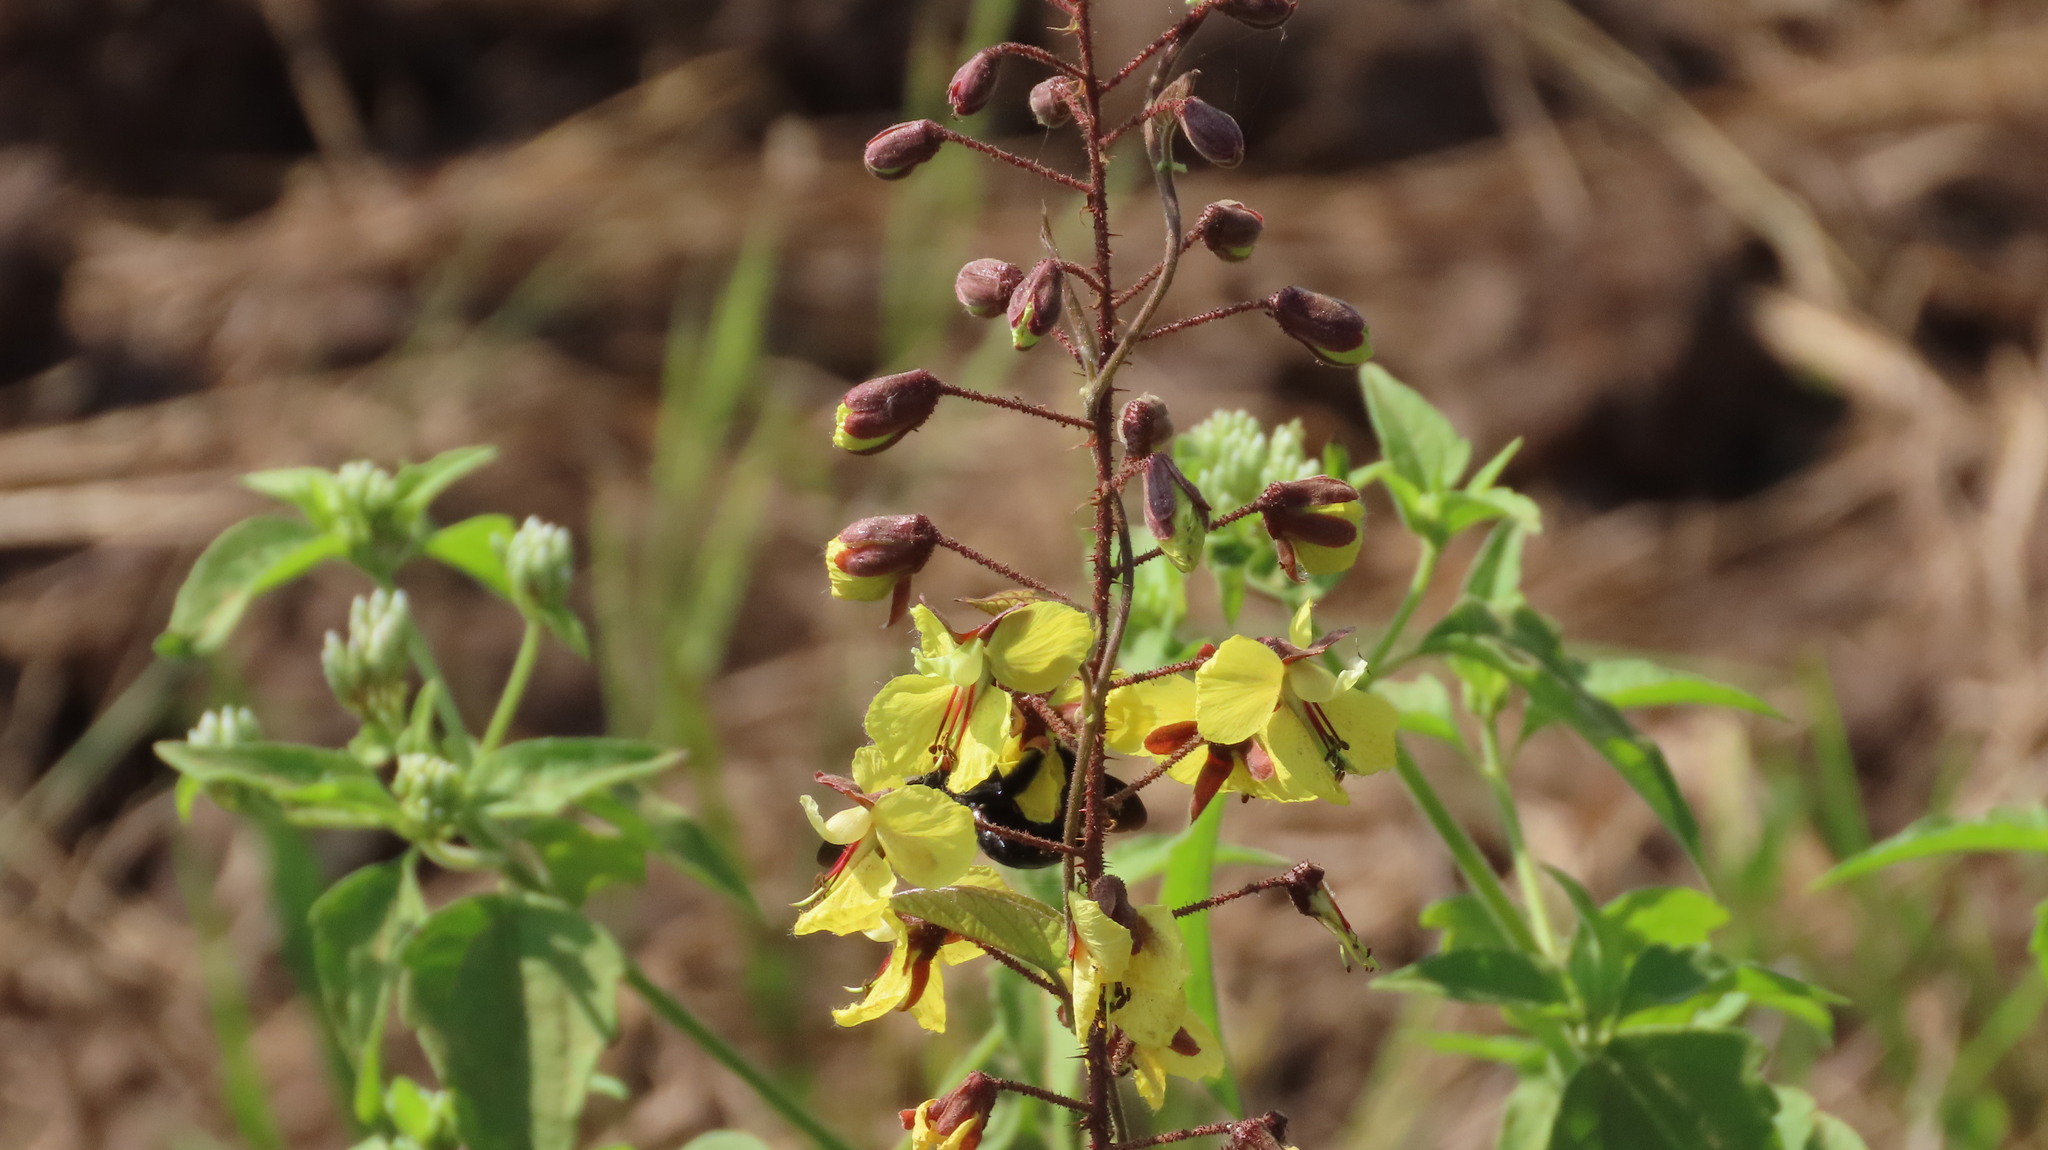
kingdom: Animalia
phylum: Arthropoda
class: Insecta
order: Hymenoptera
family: Apidae
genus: Xylocopa
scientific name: Xylocopa ruficornis
